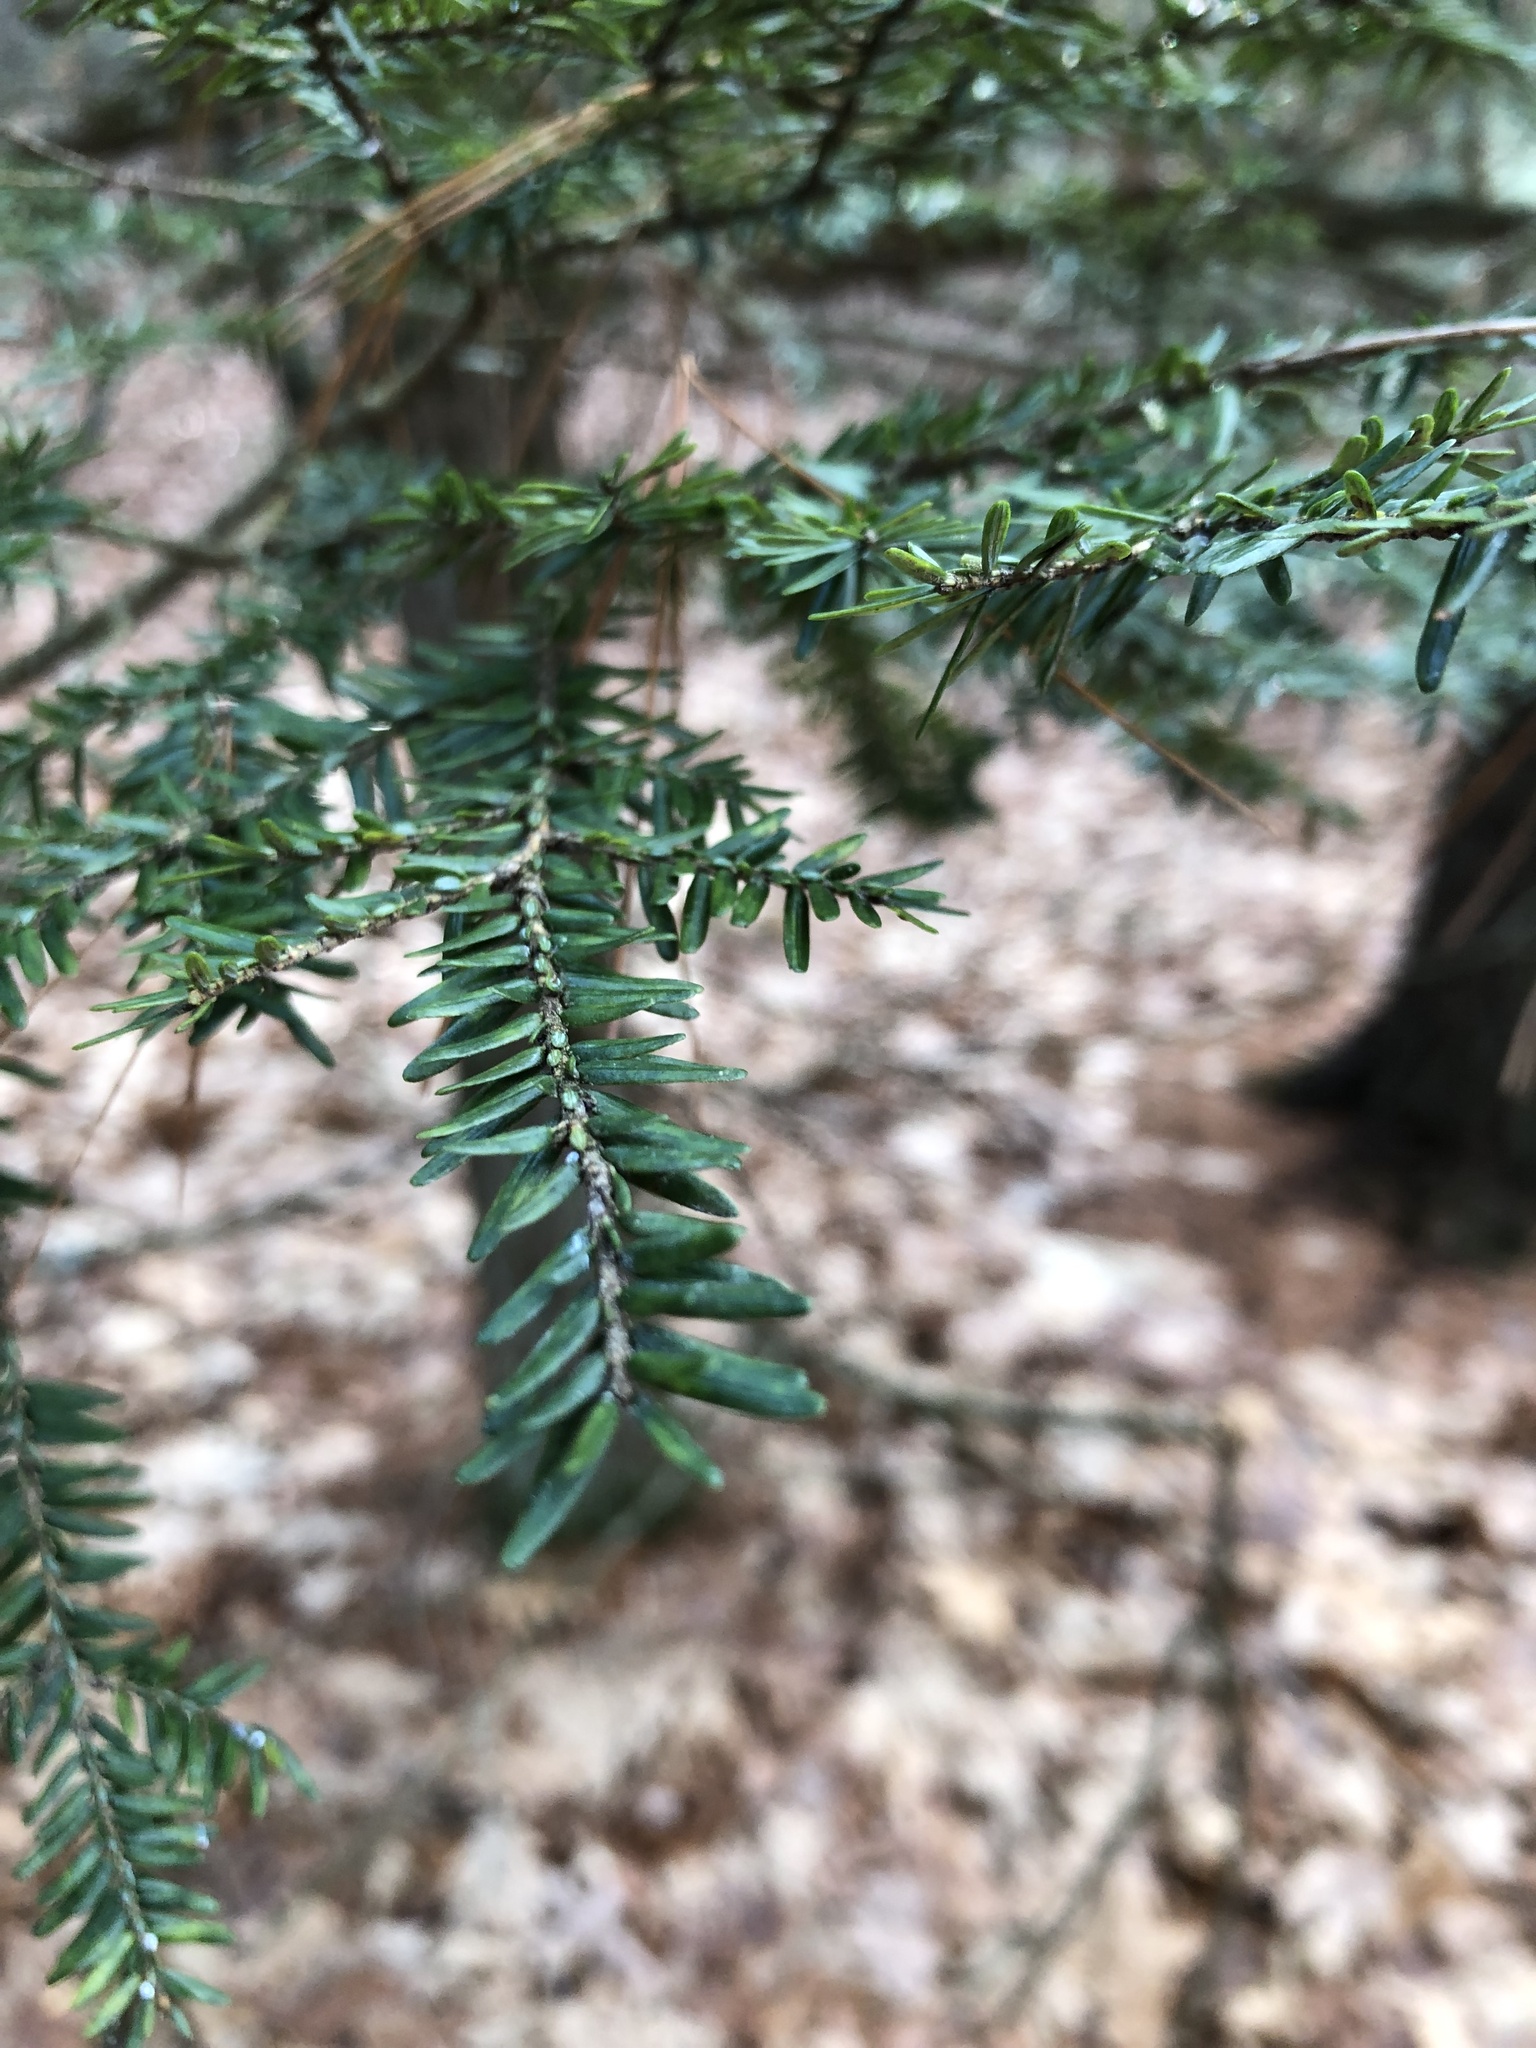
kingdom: Plantae
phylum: Tracheophyta
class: Pinopsida
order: Pinales
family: Pinaceae
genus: Tsuga
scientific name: Tsuga canadensis
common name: Eastern hemlock
